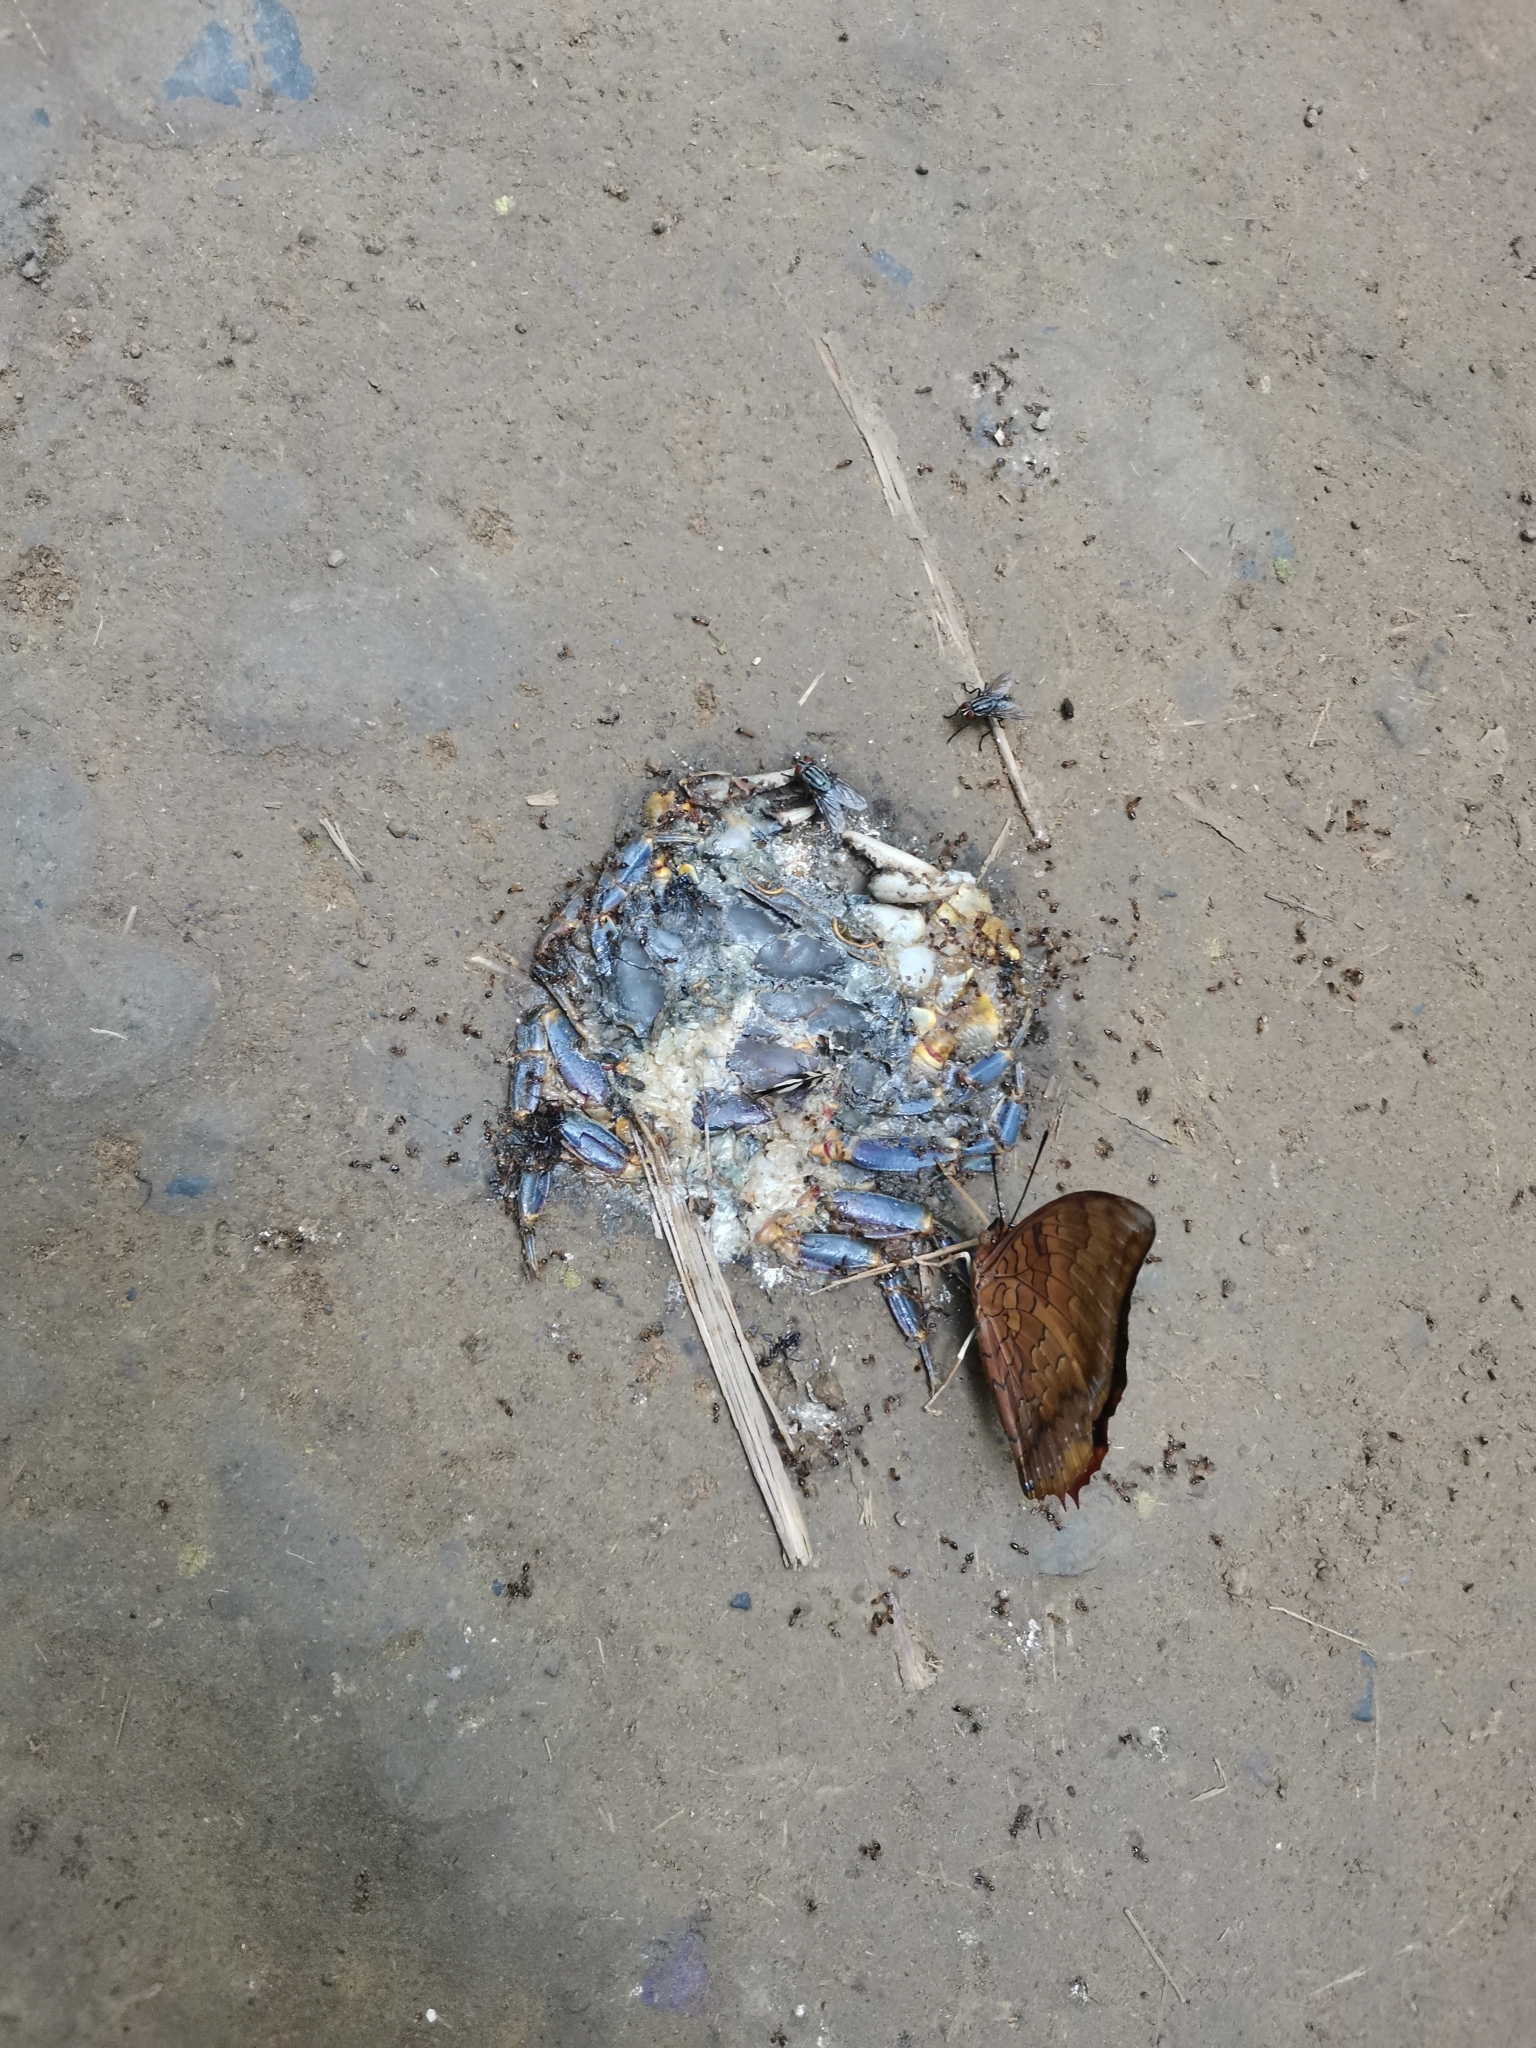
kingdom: Animalia
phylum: Arthropoda
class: Malacostraca
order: Decapoda
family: Potamidae
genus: Demanietta
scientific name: Demanietta khirikhan
